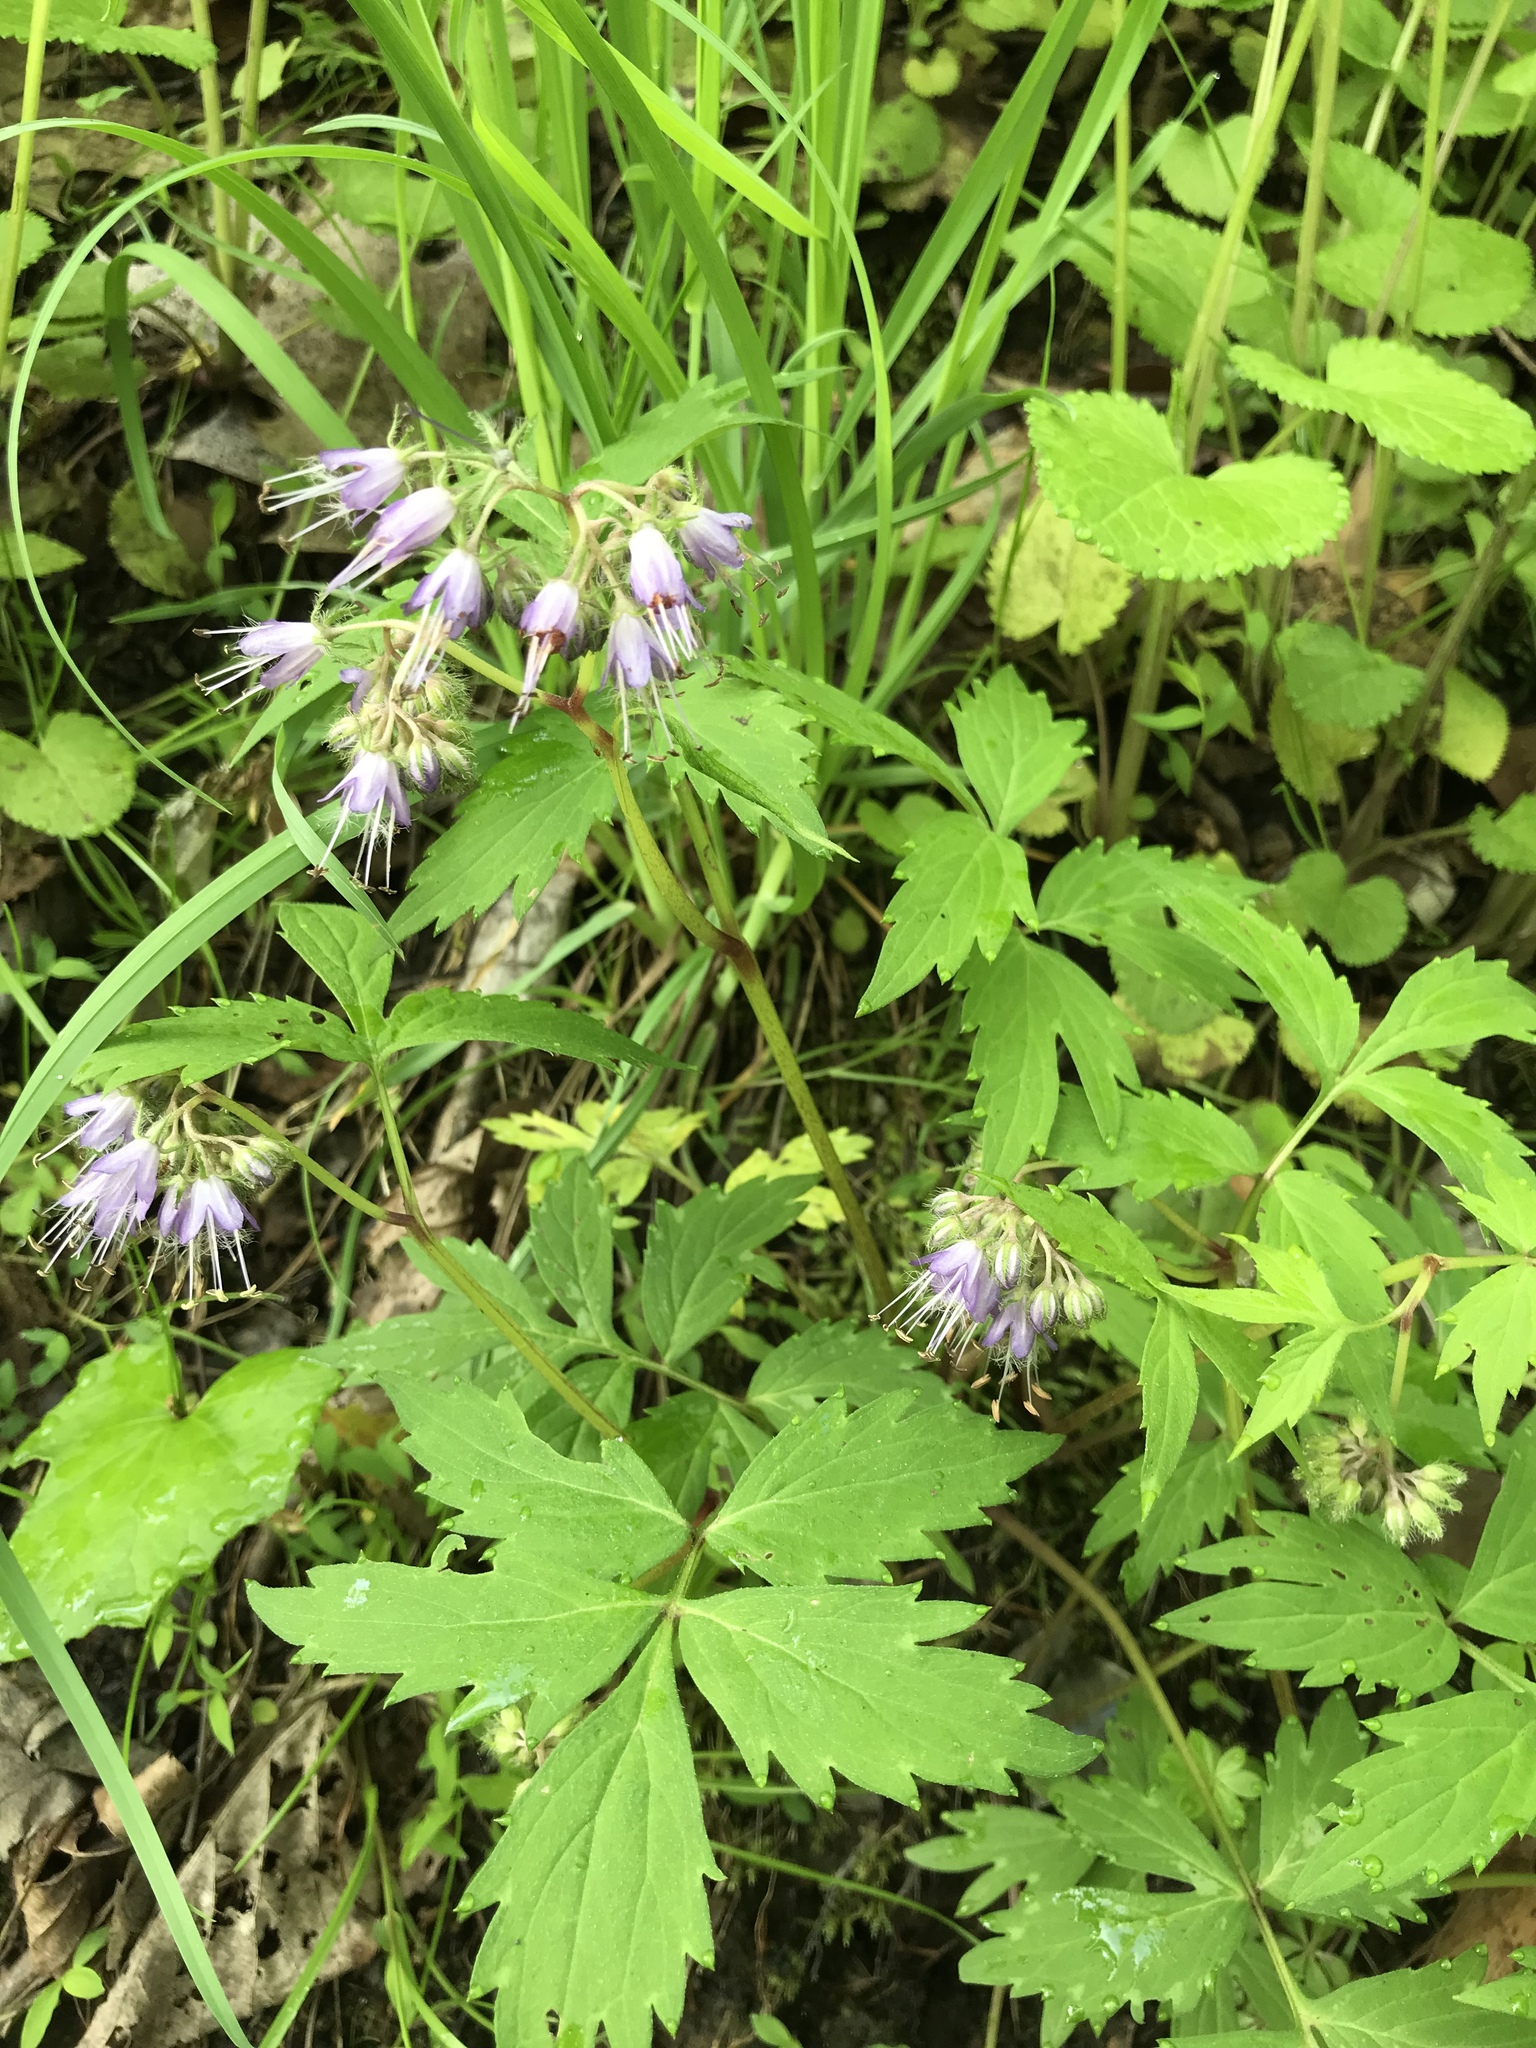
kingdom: Plantae
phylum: Tracheophyta
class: Magnoliopsida
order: Boraginales
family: Hydrophyllaceae
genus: Hydrophyllum
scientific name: Hydrophyllum virginianum
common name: Virginia waterleaf
